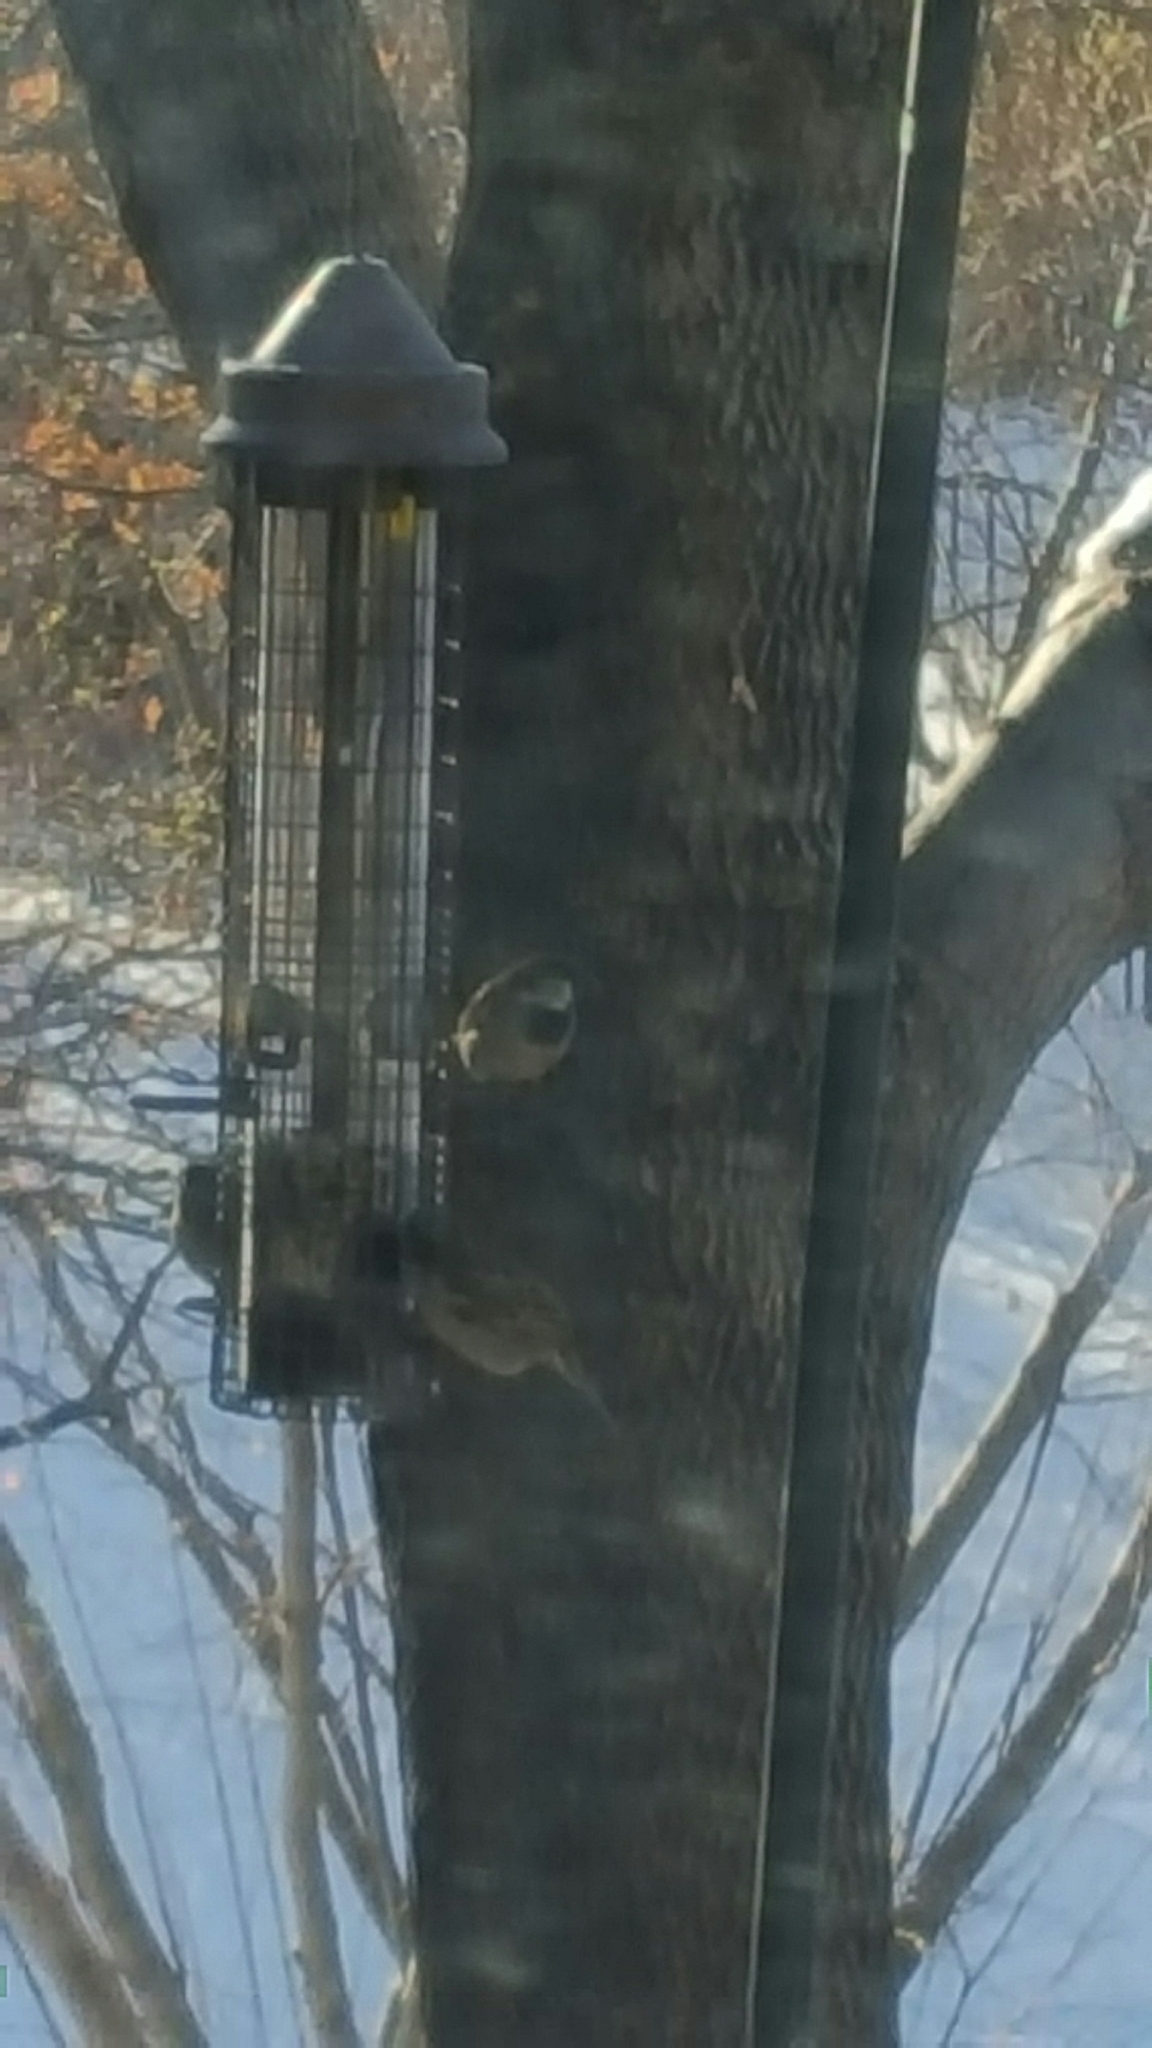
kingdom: Animalia
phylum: Chordata
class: Aves
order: Passeriformes
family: Passeridae
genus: Passer
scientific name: Passer domesticus
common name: House sparrow
